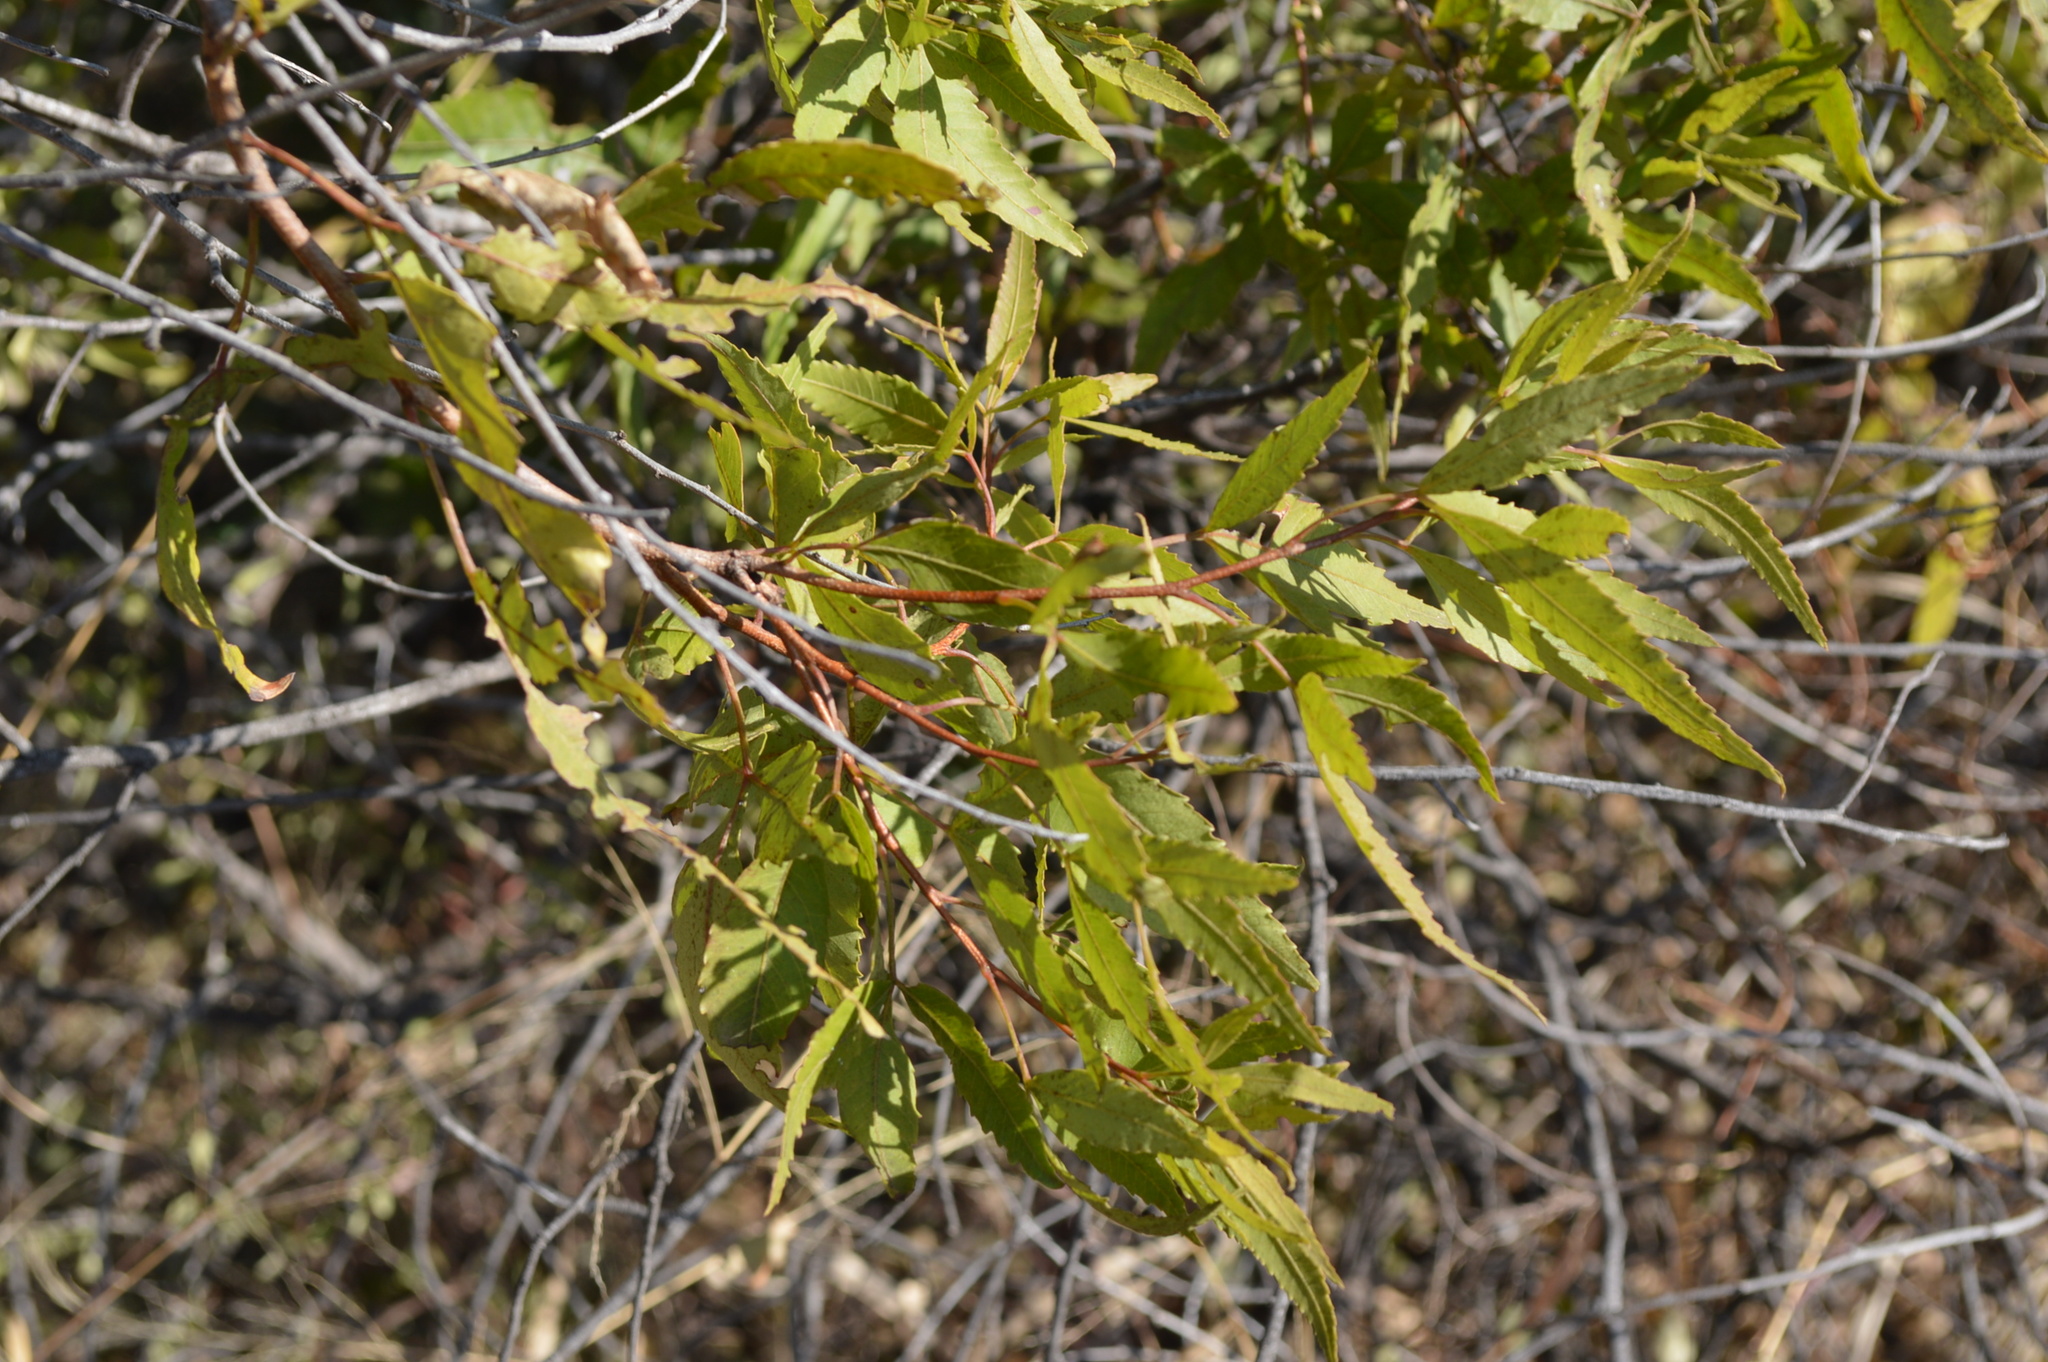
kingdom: Plantae
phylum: Tracheophyta
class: Magnoliopsida
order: Sapindales
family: Anacardiaceae
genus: Searsia
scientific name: Searsia leptodictya
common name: Mountain karee
